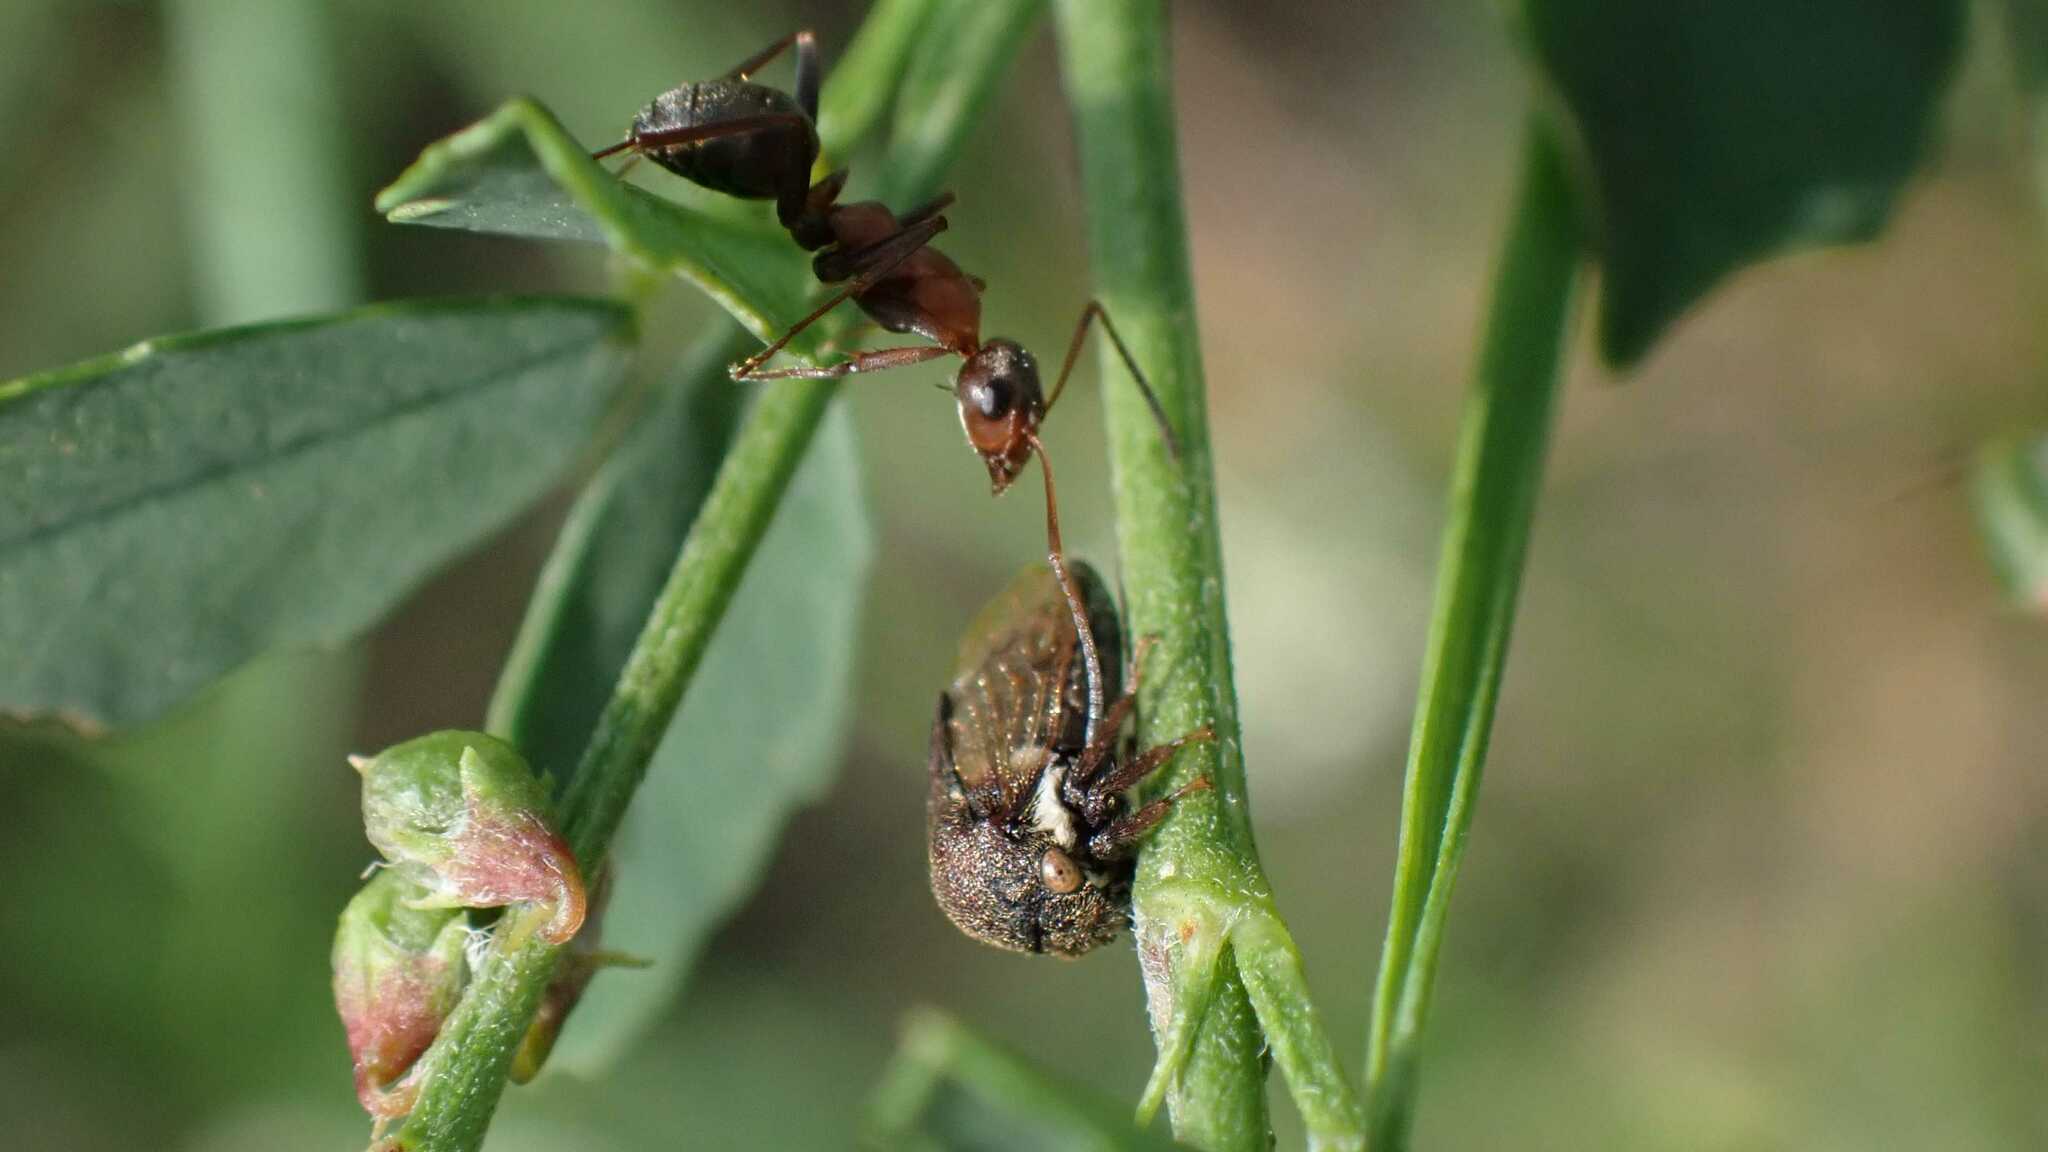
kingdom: Animalia
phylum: Arthropoda
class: Insecta
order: Hemiptera
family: Membracidae
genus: Gargara
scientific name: Gargara genistae
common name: Treehopper
